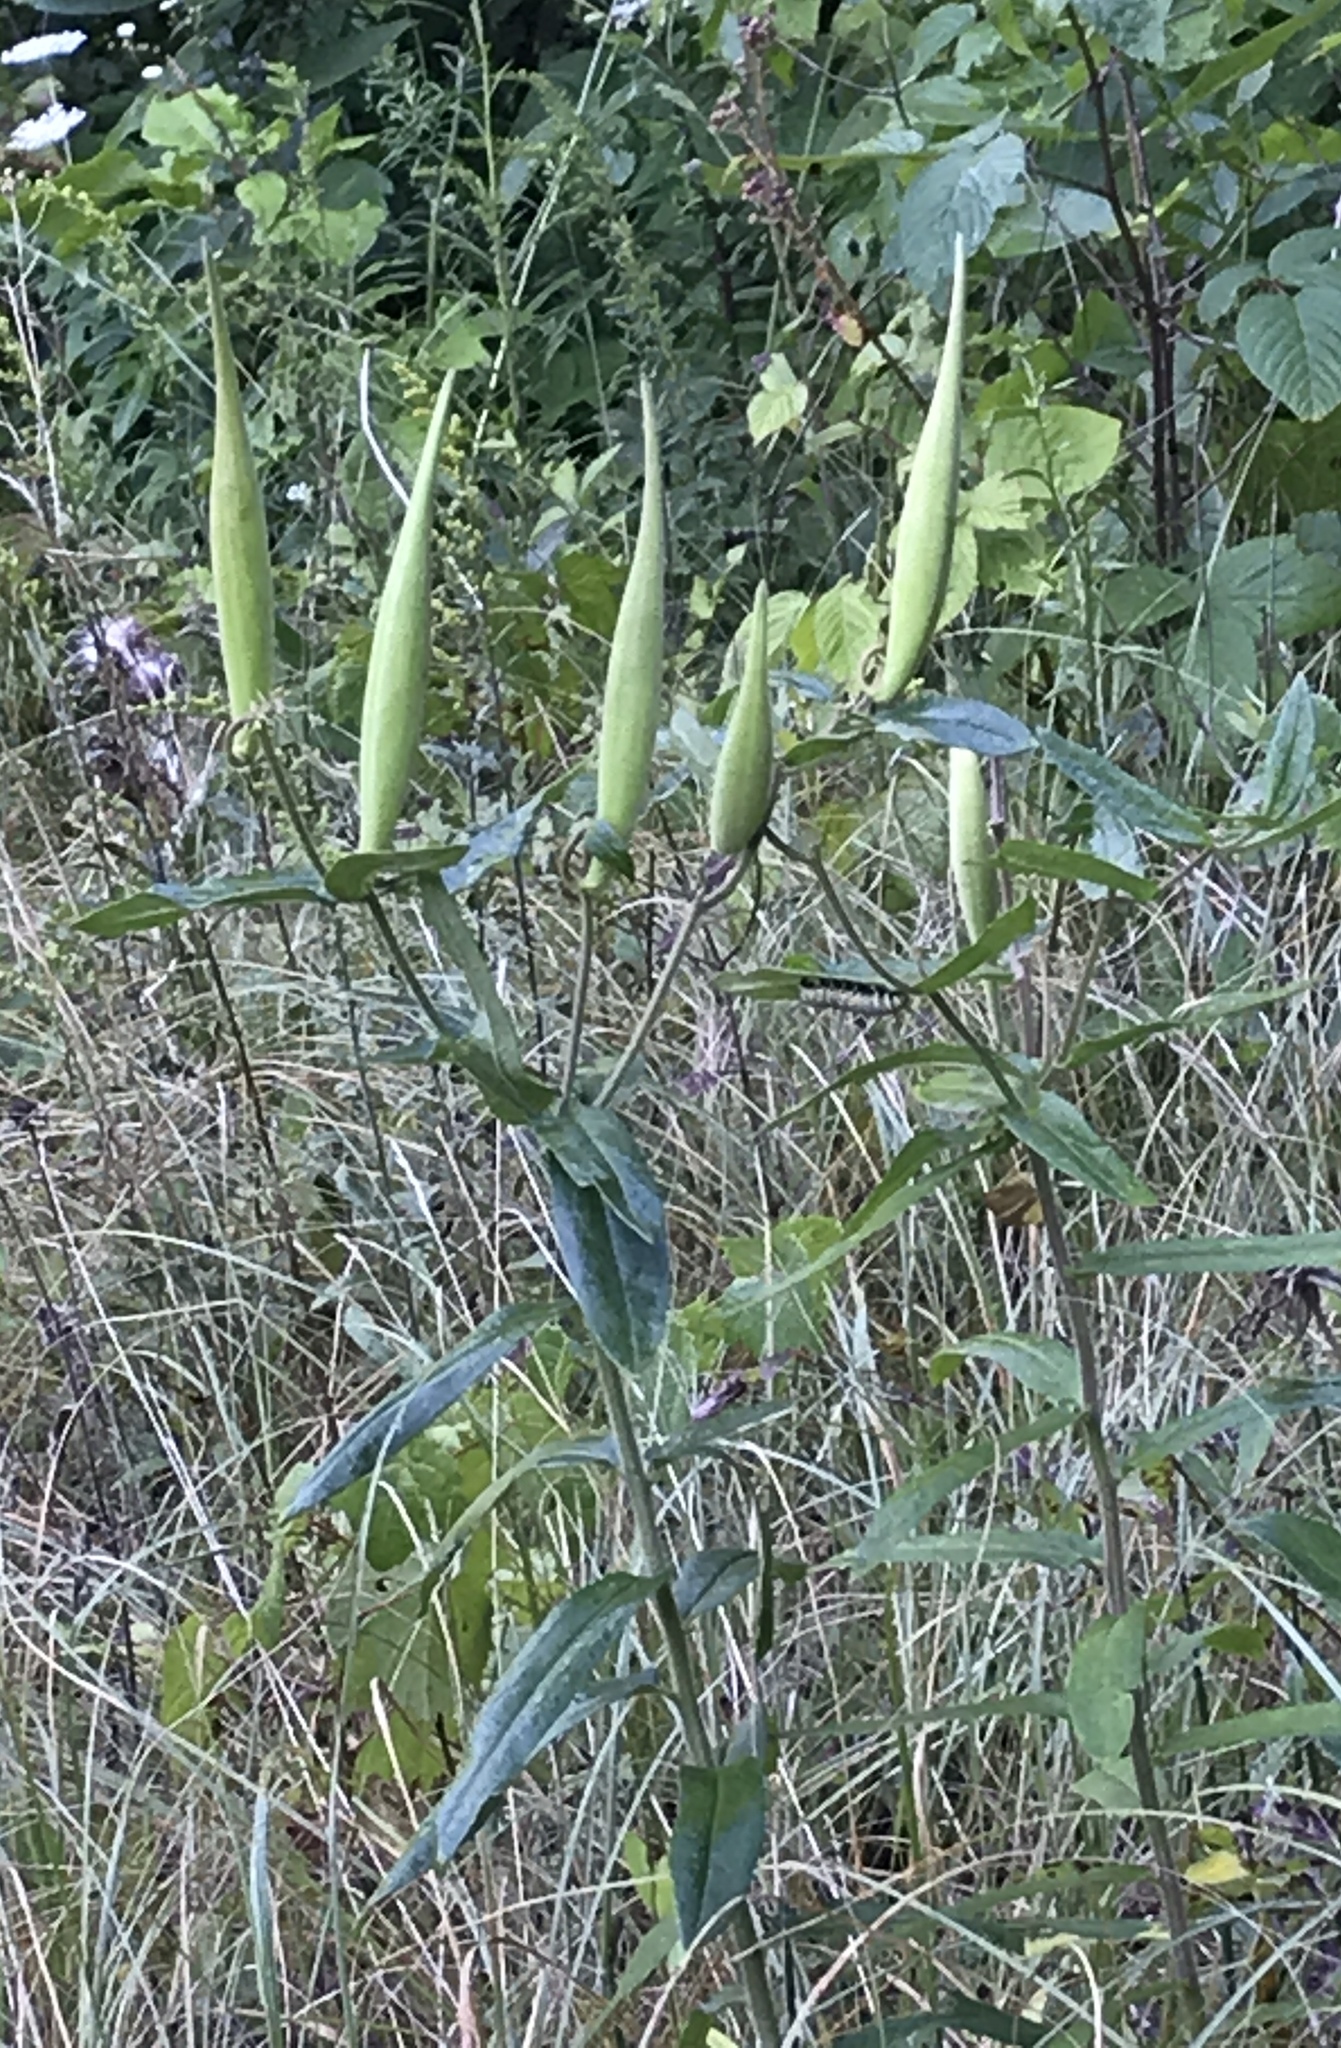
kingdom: Plantae
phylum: Tracheophyta
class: Magnoliopsida
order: Gentianales
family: Apocynaceae
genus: Asclepias
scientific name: Asclepias tuberosa
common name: Butterfly milkweed
